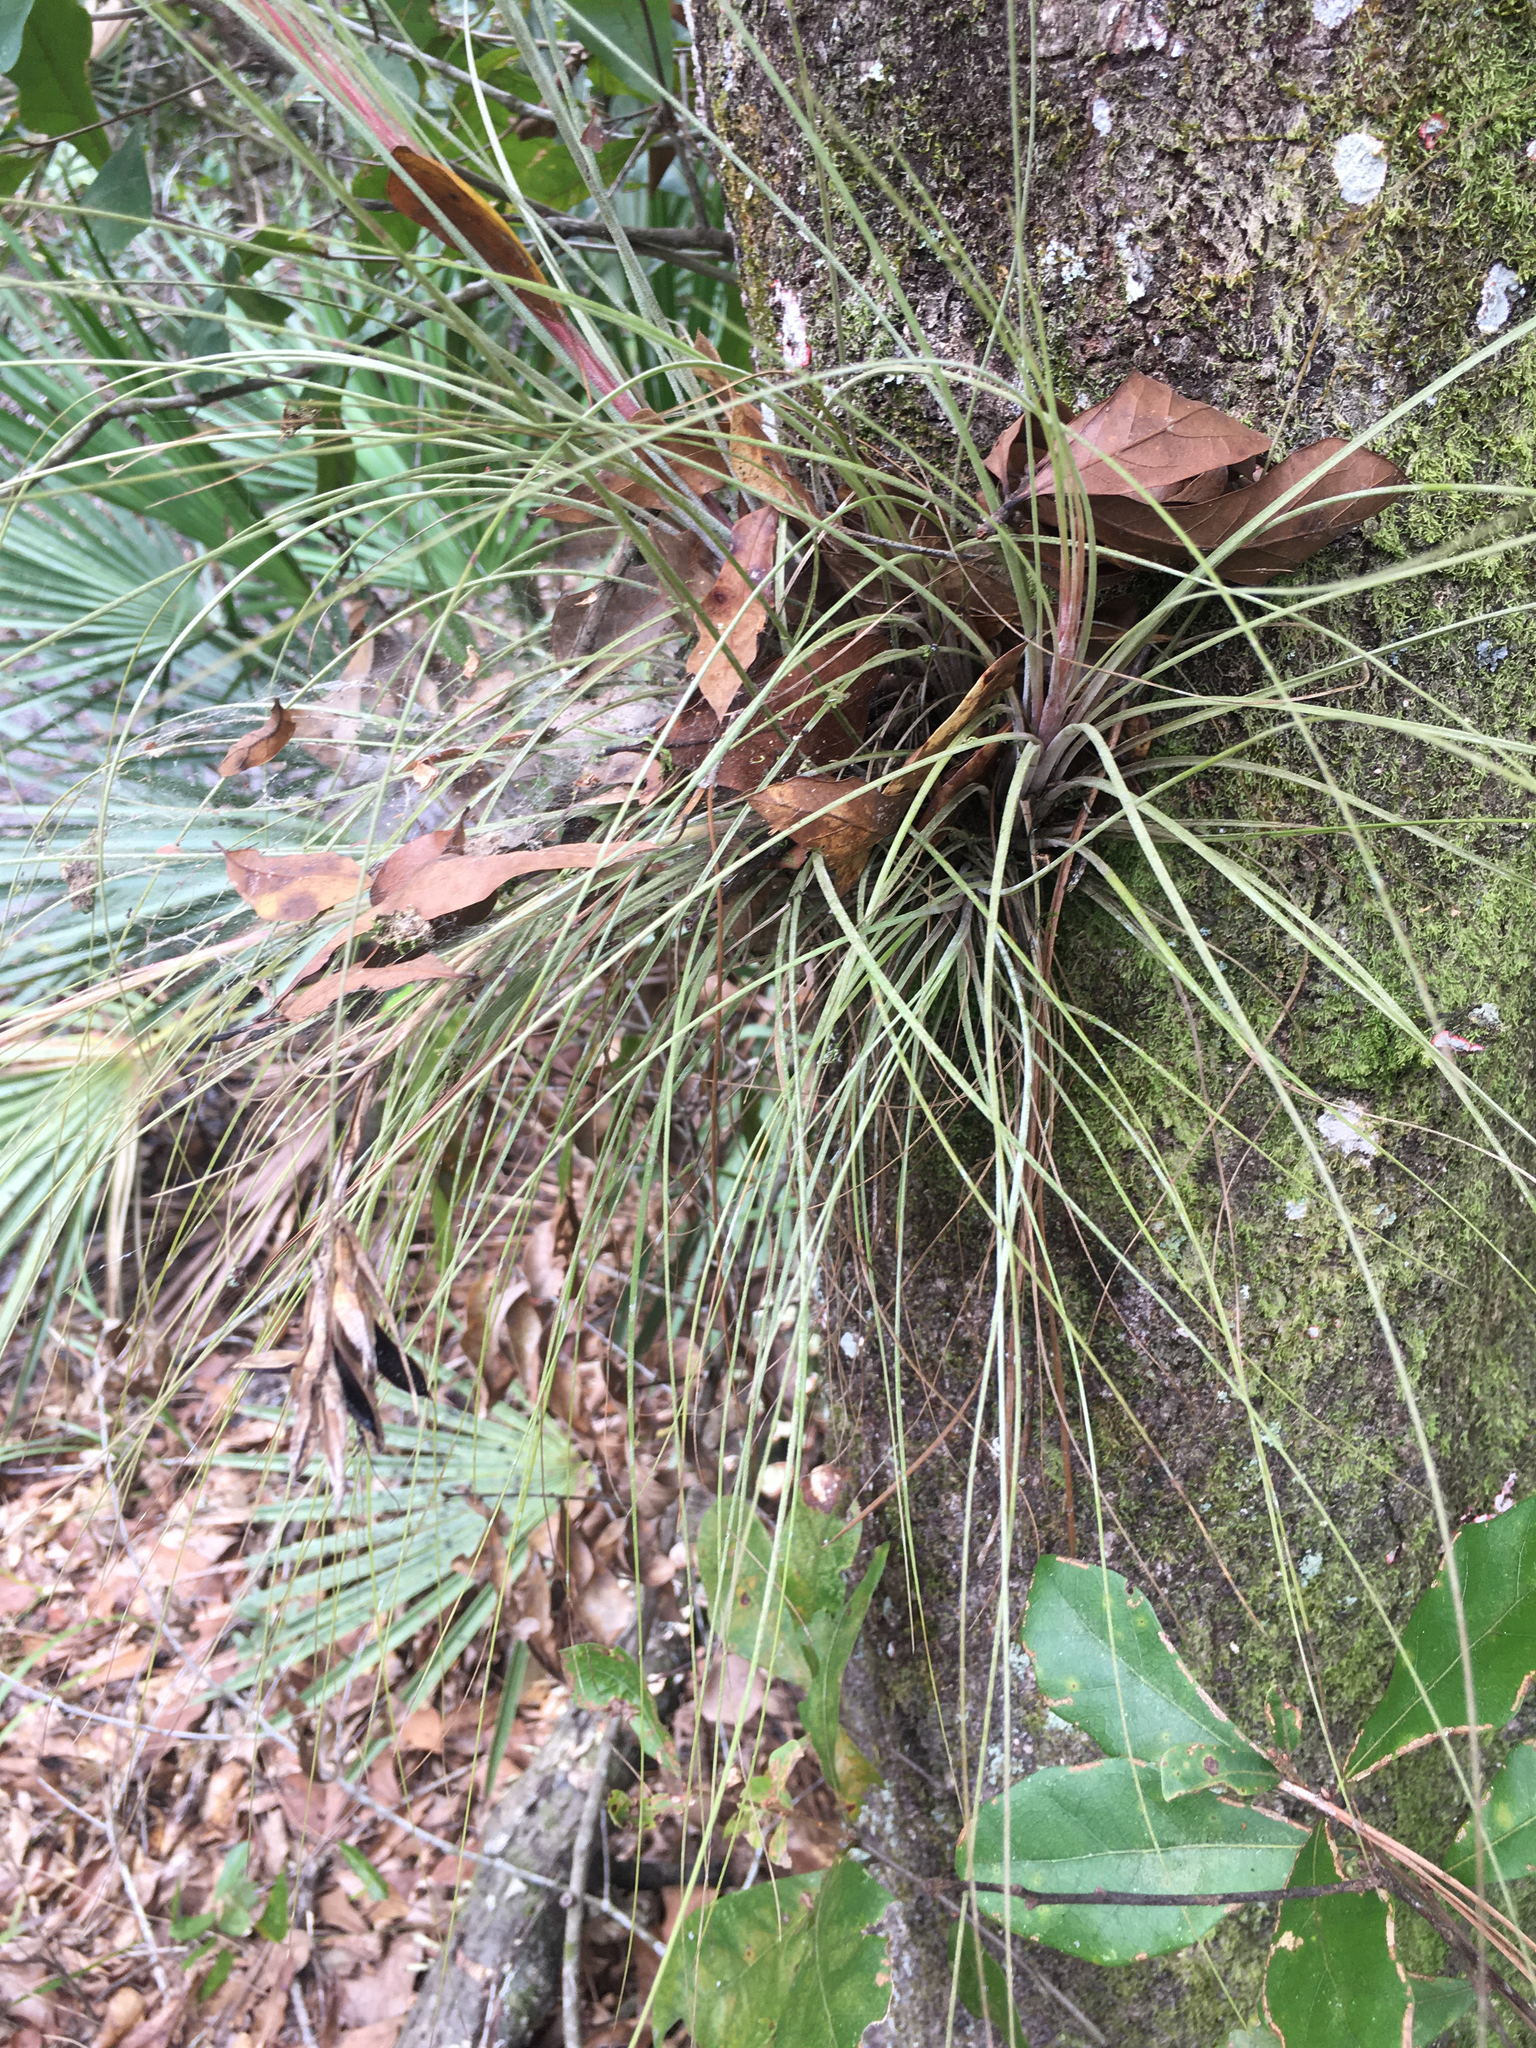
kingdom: Plantae
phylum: Tracheophyta
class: Liliopsida
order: Poales
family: Bromeliaceae
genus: Tillandsia
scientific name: Tillandsia setacea
